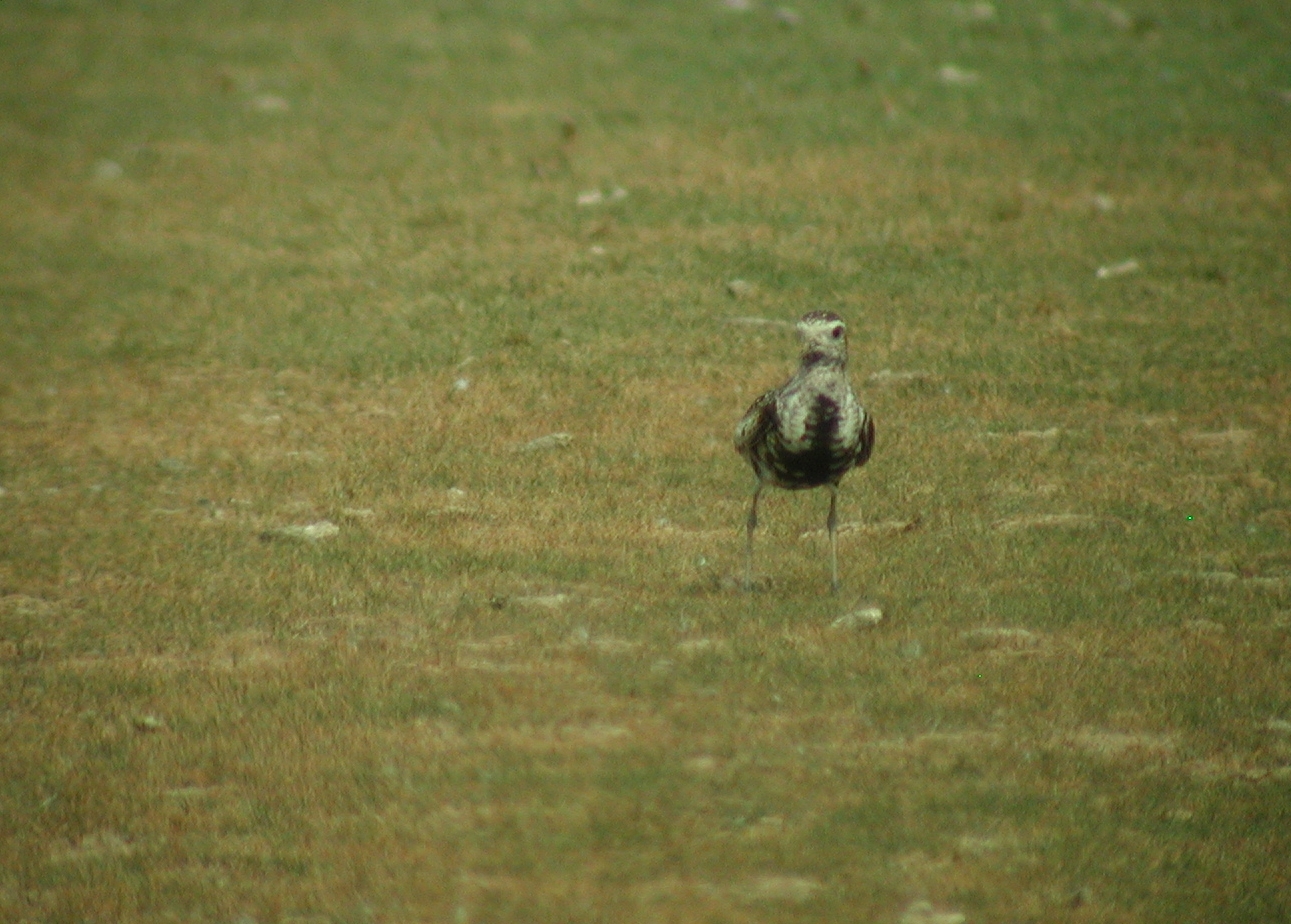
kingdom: Animalia
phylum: Chordata
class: Aves
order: Charadriiformes
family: Charadriidae
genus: Pluvialis
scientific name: Pluvialis dominica
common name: American golden plover
